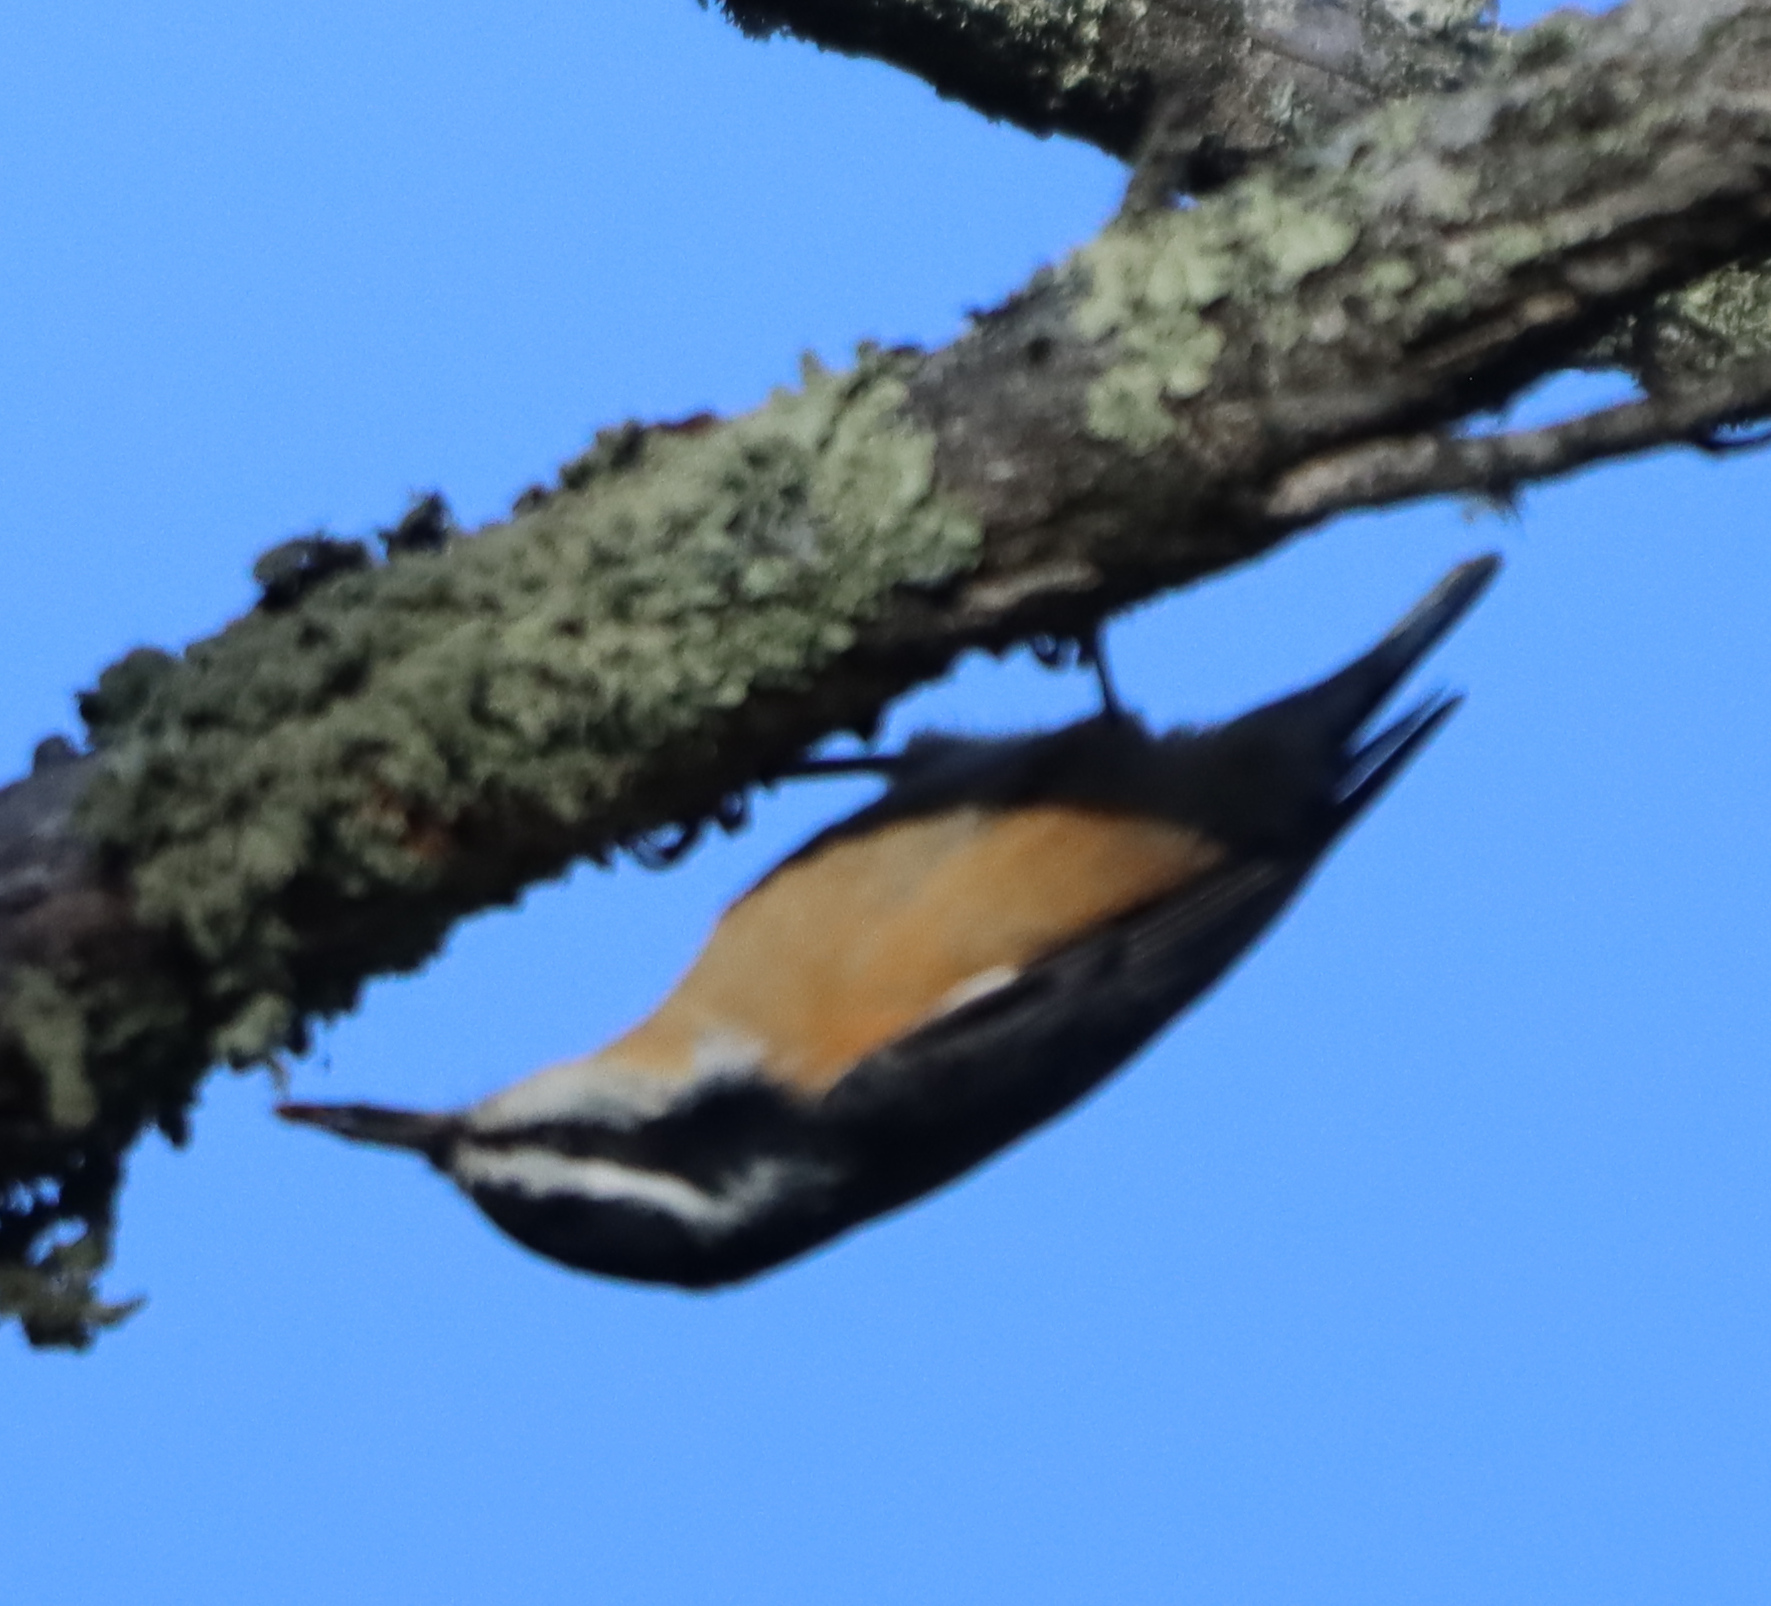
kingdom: Animalia
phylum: Chordata
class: Aves
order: Passeriformes
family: Sittidae
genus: Sitta
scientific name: Sitta canadensis
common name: Red-breasted nuthatch
